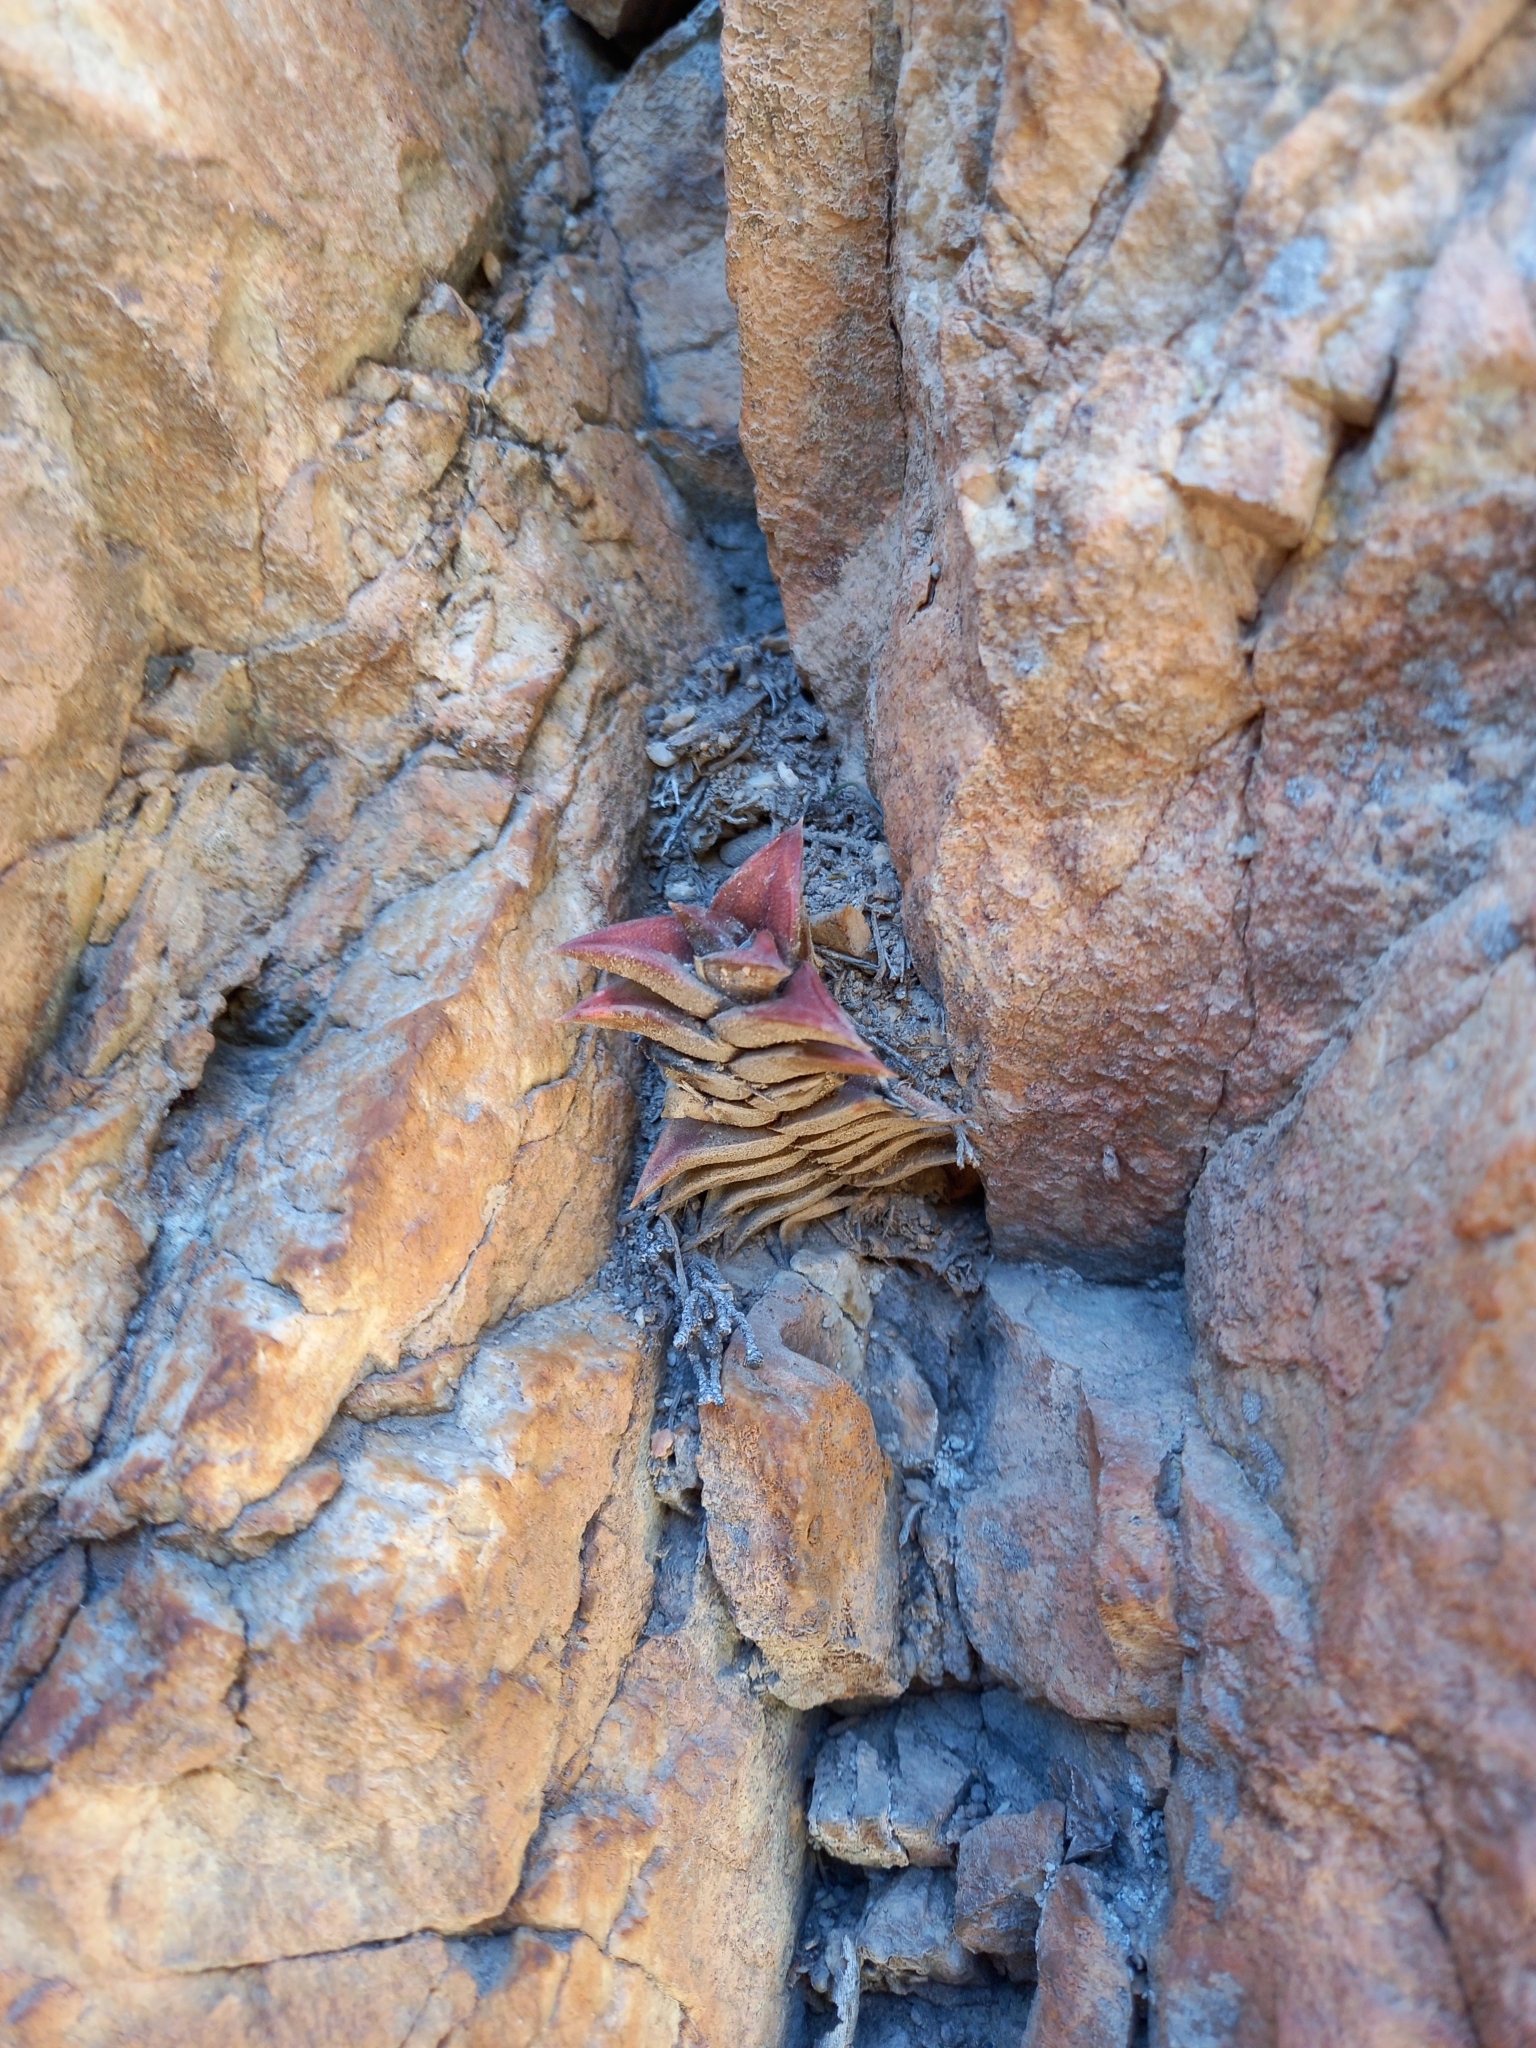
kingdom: Plantae
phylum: Tracheophyta
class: Liliopsida
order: Asparagales
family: Asphodelaceae
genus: Haworthiopsis
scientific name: Haworthiopsis viscosa
